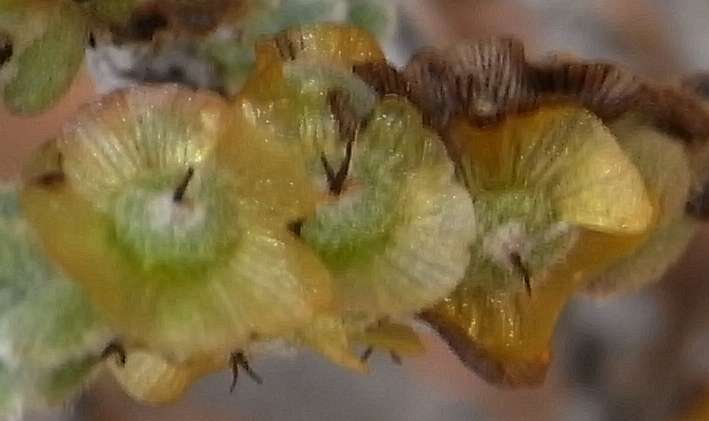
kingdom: Plantae
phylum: Tracheophyta
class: Magnoliopsida
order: Caryophyllales
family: Amaranthaceae
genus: Maireana
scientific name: Maireana radiata
